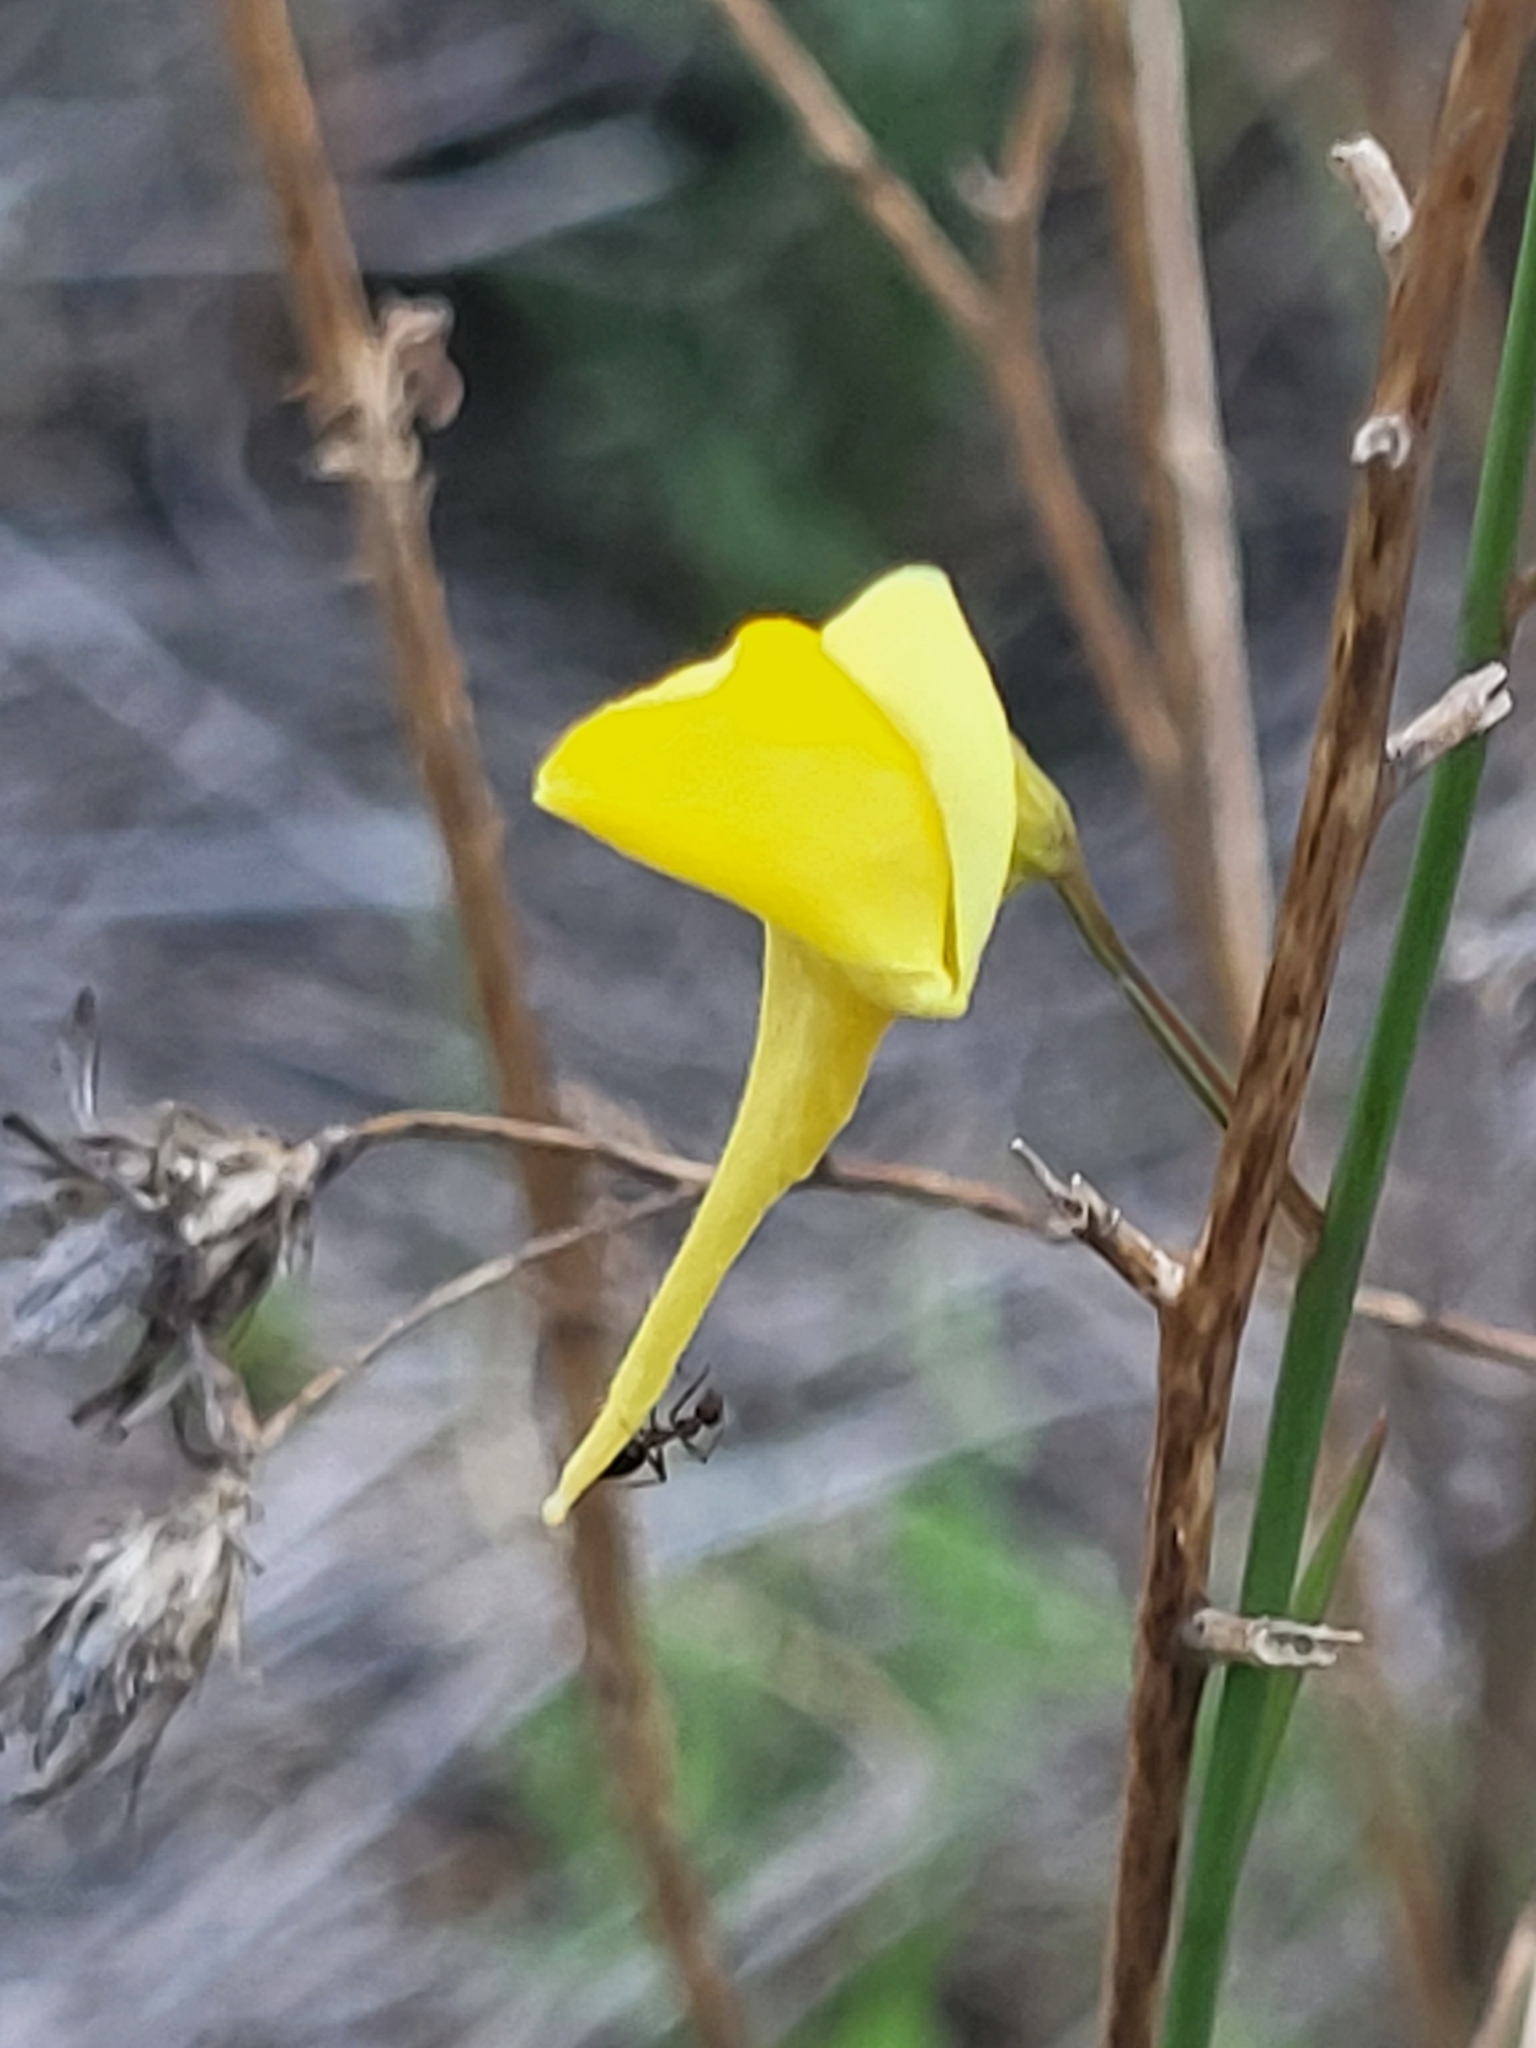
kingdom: Plantae
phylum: Tracheophyta
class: Magnoliopsida
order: Lamiales
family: Plantaginaceae
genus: Nanorrhinum
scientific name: Nanorrhinum scoparium
